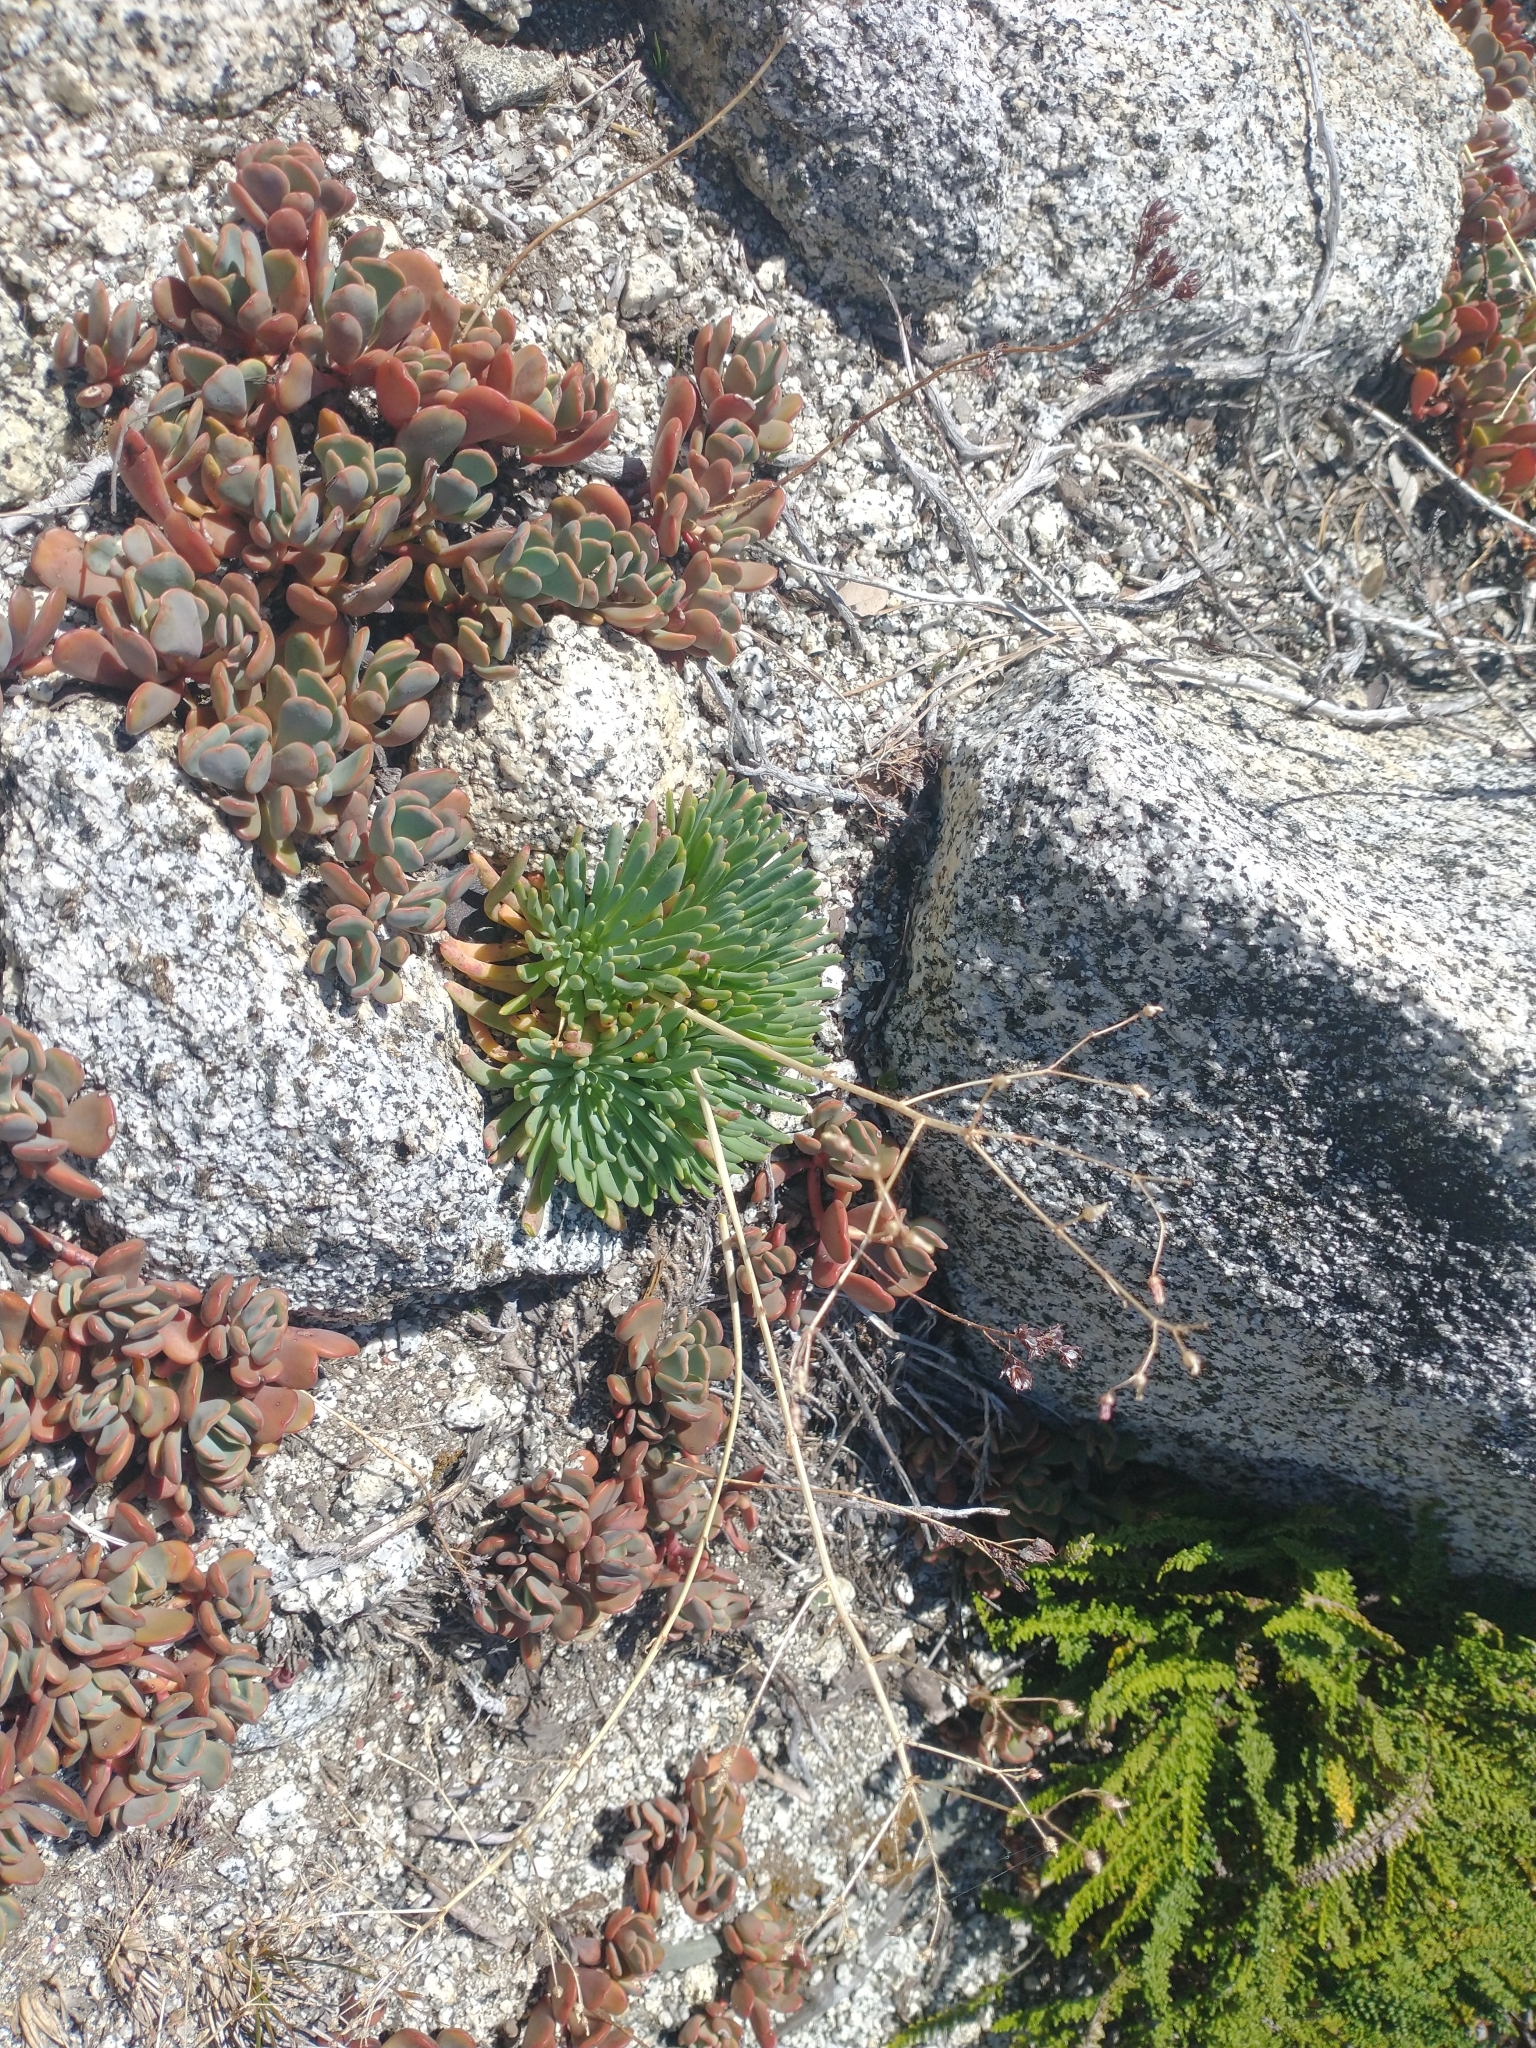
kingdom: Plantae
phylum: Tracheophyta
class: Magnoliopsida
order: Caryophyllales
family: Montiaceae
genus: Lewisia
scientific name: Lewisia leeana
